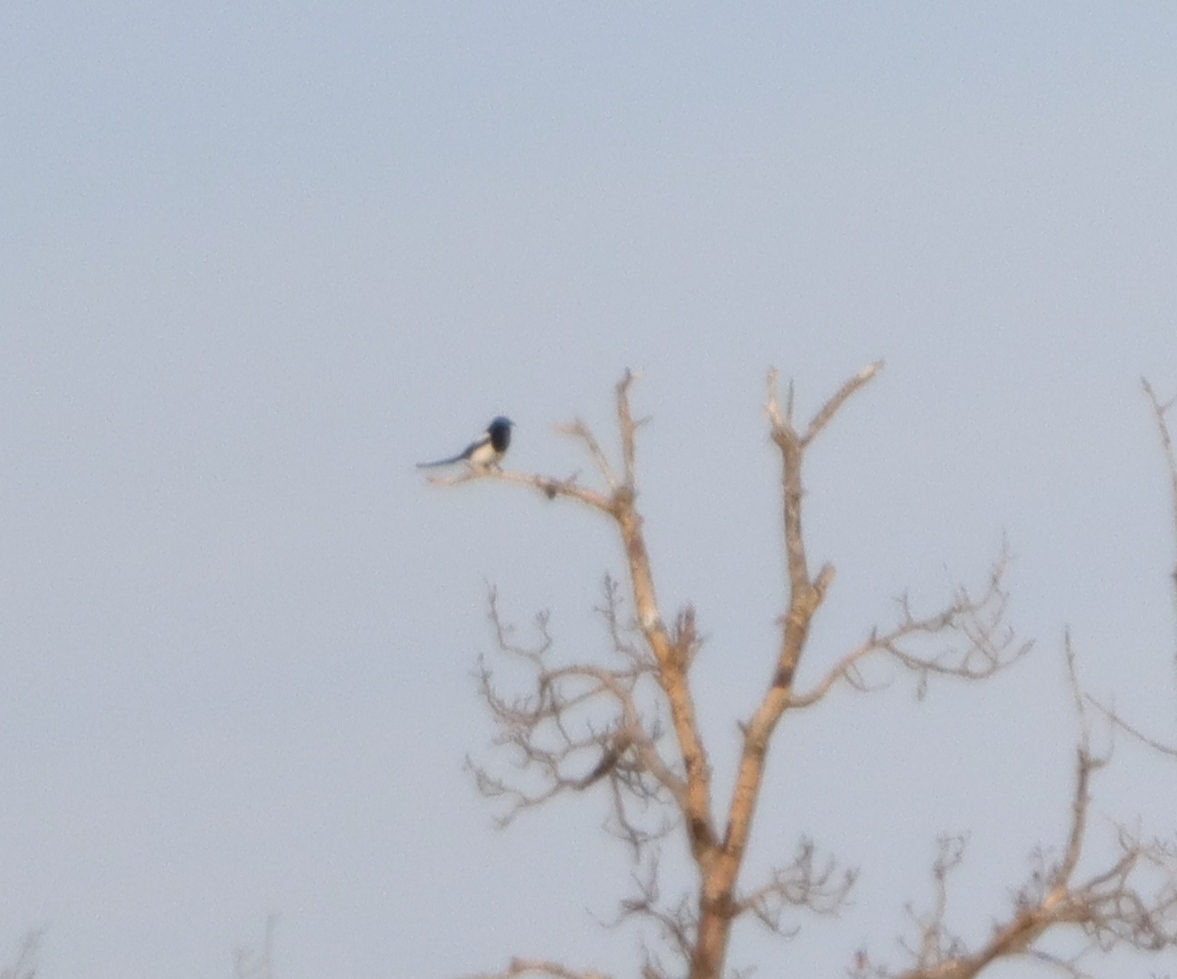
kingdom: Animalia
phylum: Chordata
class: Aves
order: Passeriformes
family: Corvidae
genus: Pica
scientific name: Pica hudsonia
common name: Black-billed magpie
